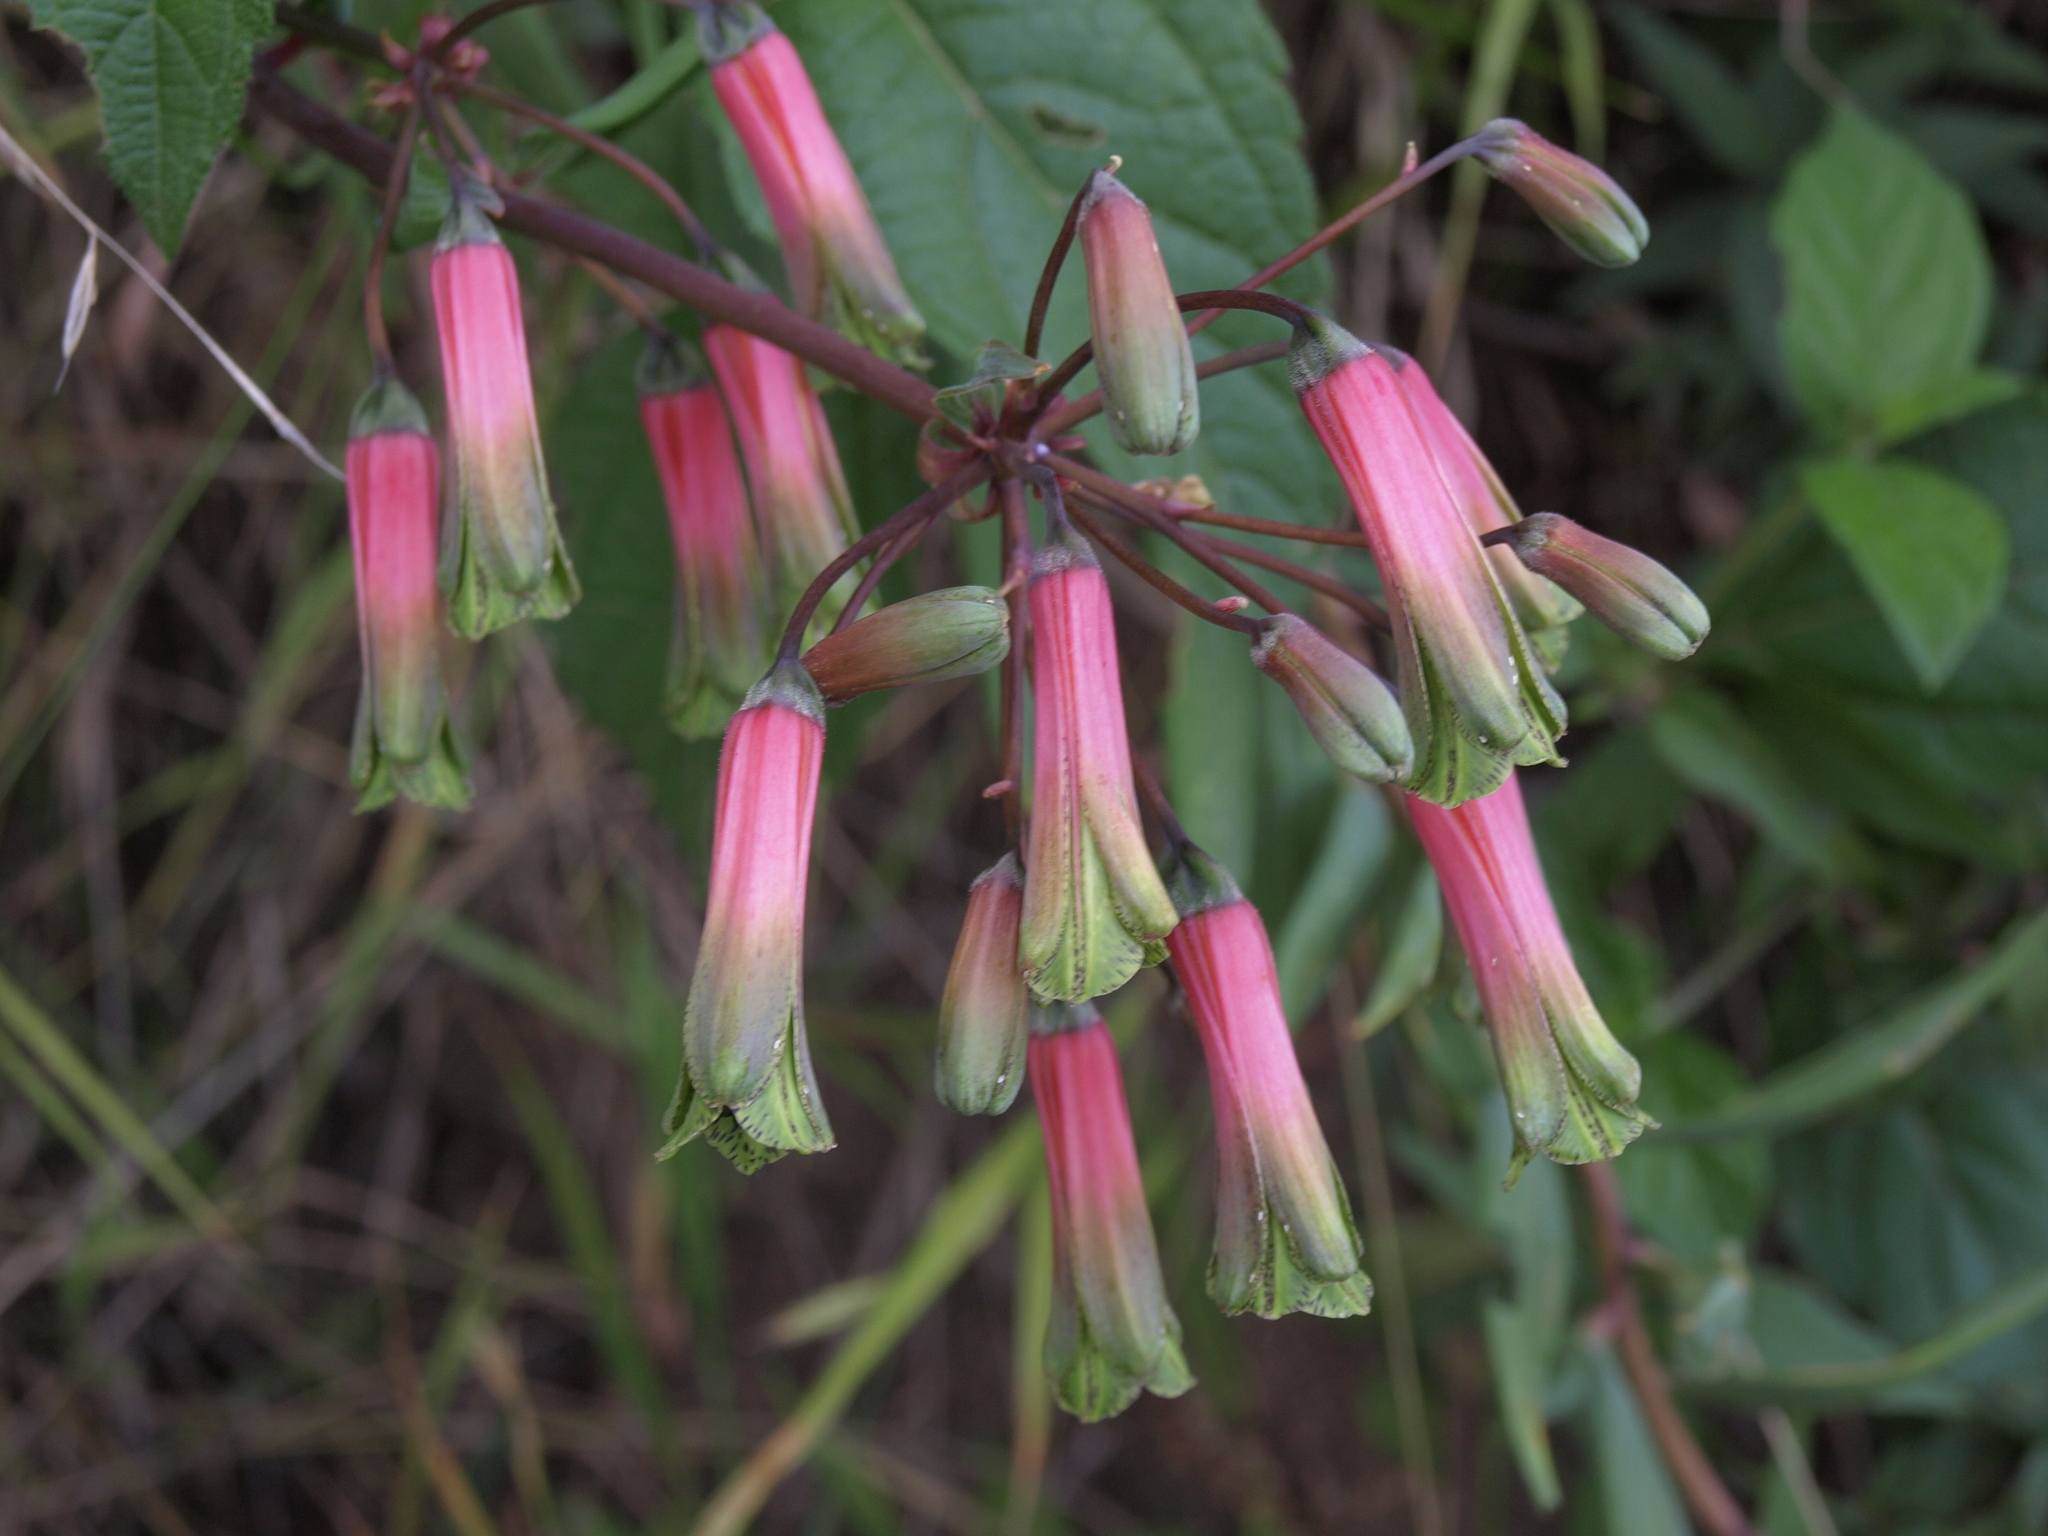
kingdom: Plantae
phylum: Tracheophyta
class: Liliopsida
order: Liliales
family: Alstroemeriaceae
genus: Bomarea
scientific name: Bomarea edulis
